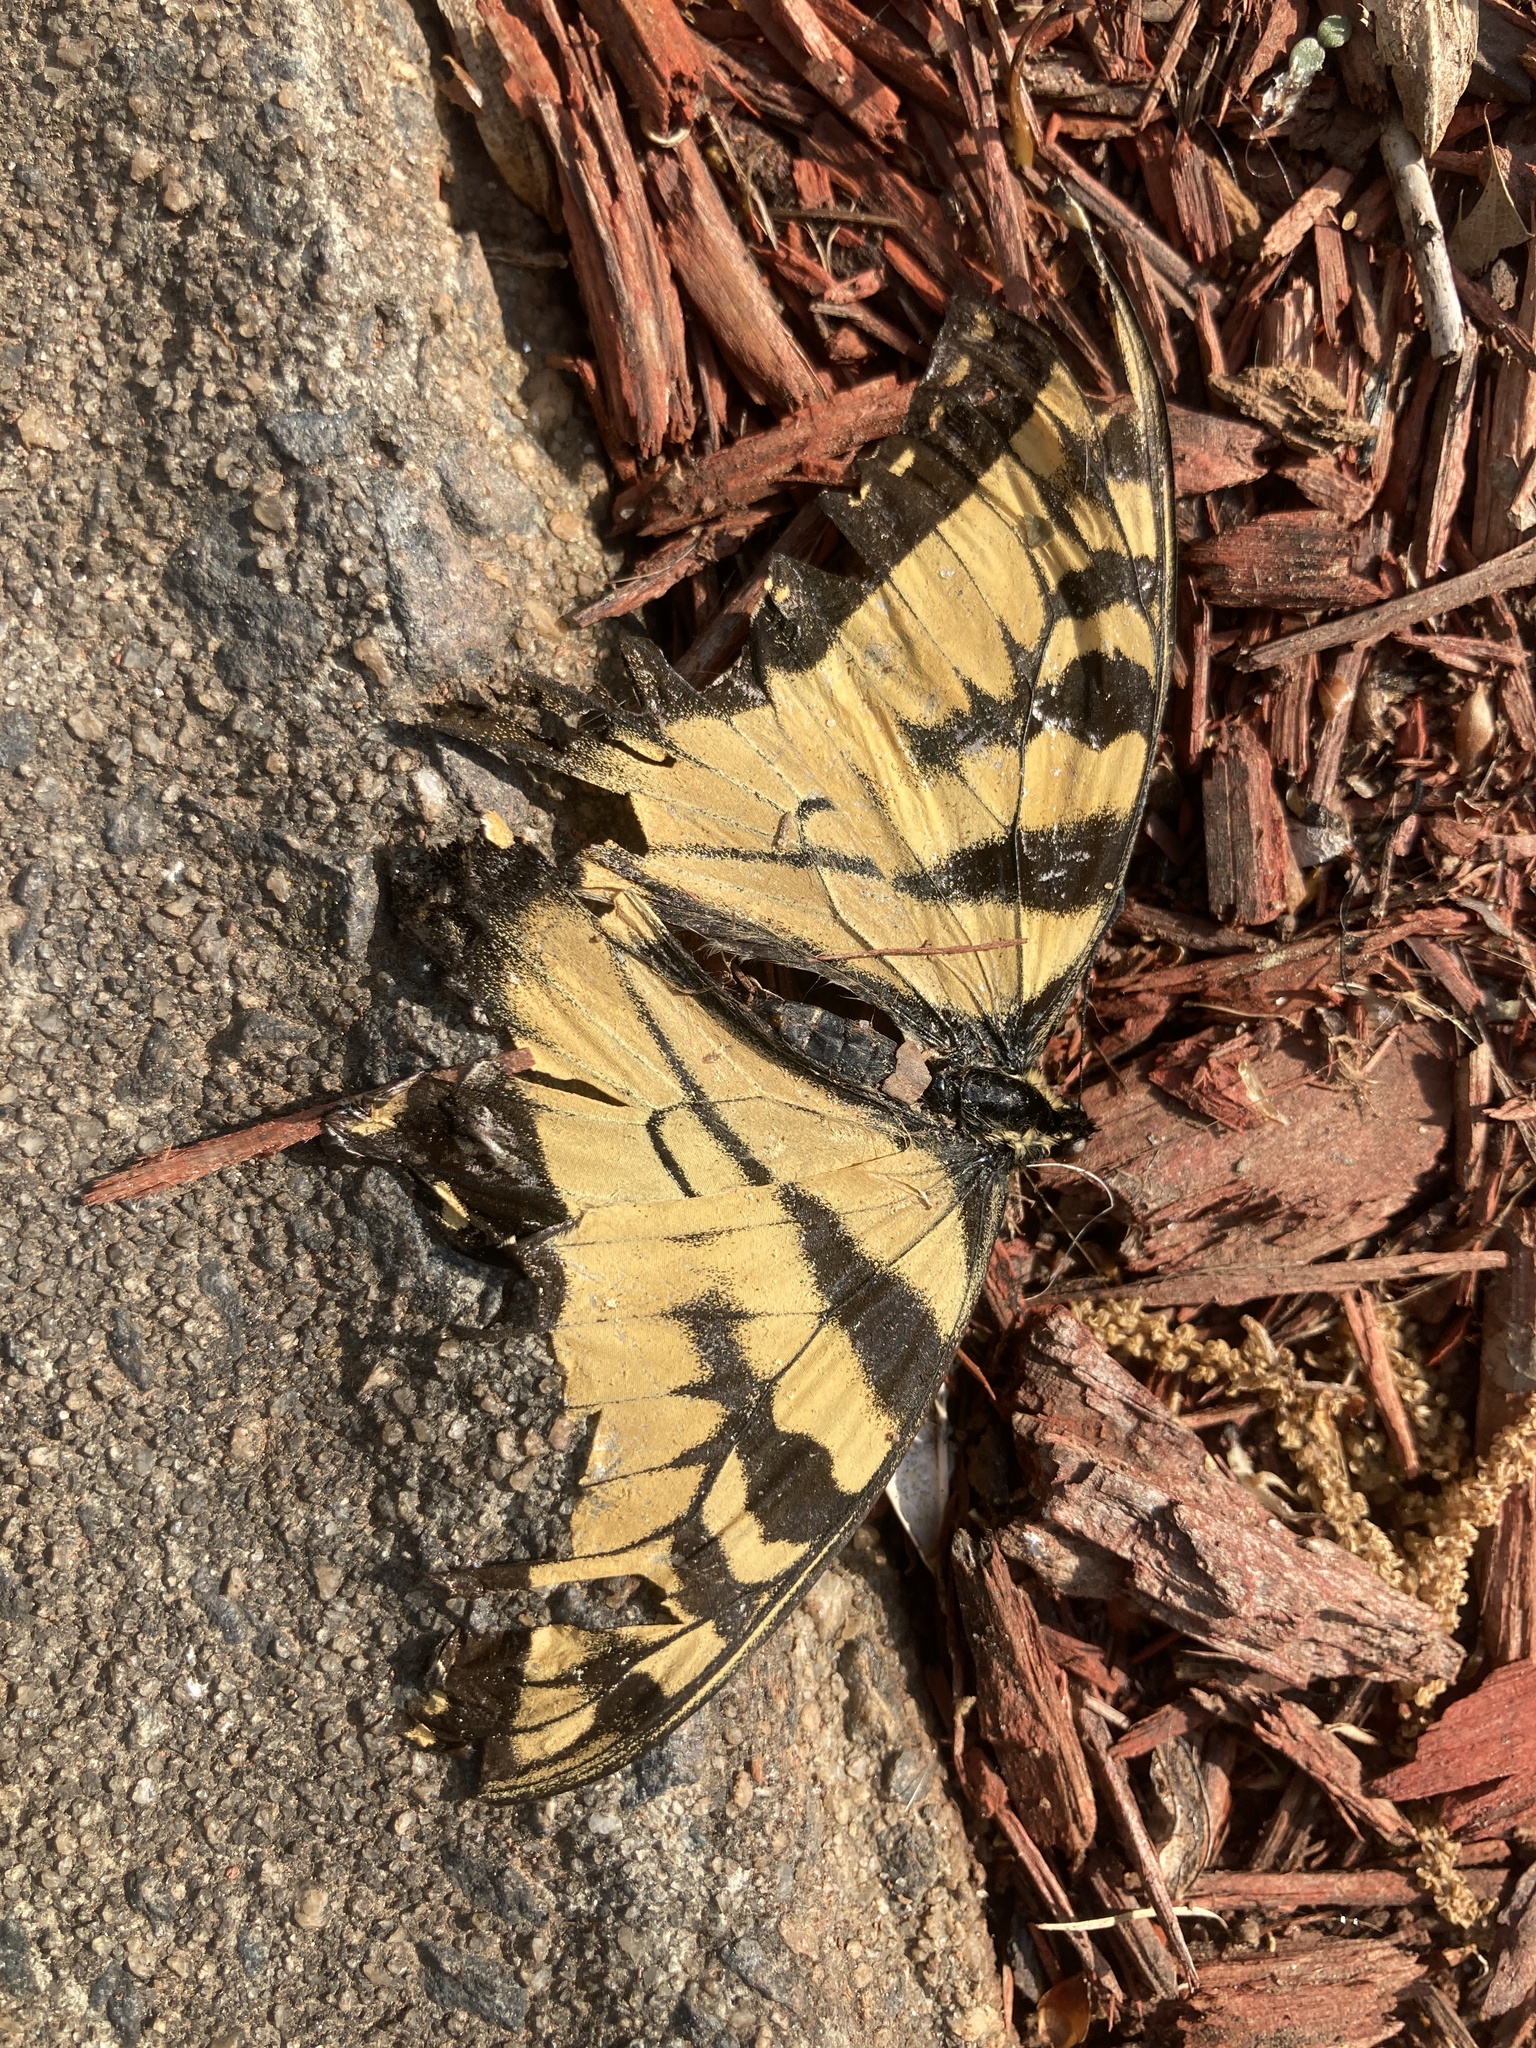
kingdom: Animalia
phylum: Arthropoda
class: Insecta
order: Lepidoptera
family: Papilionidae
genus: Papilio
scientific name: Papilio glaucus
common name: Tiger swallowtail
